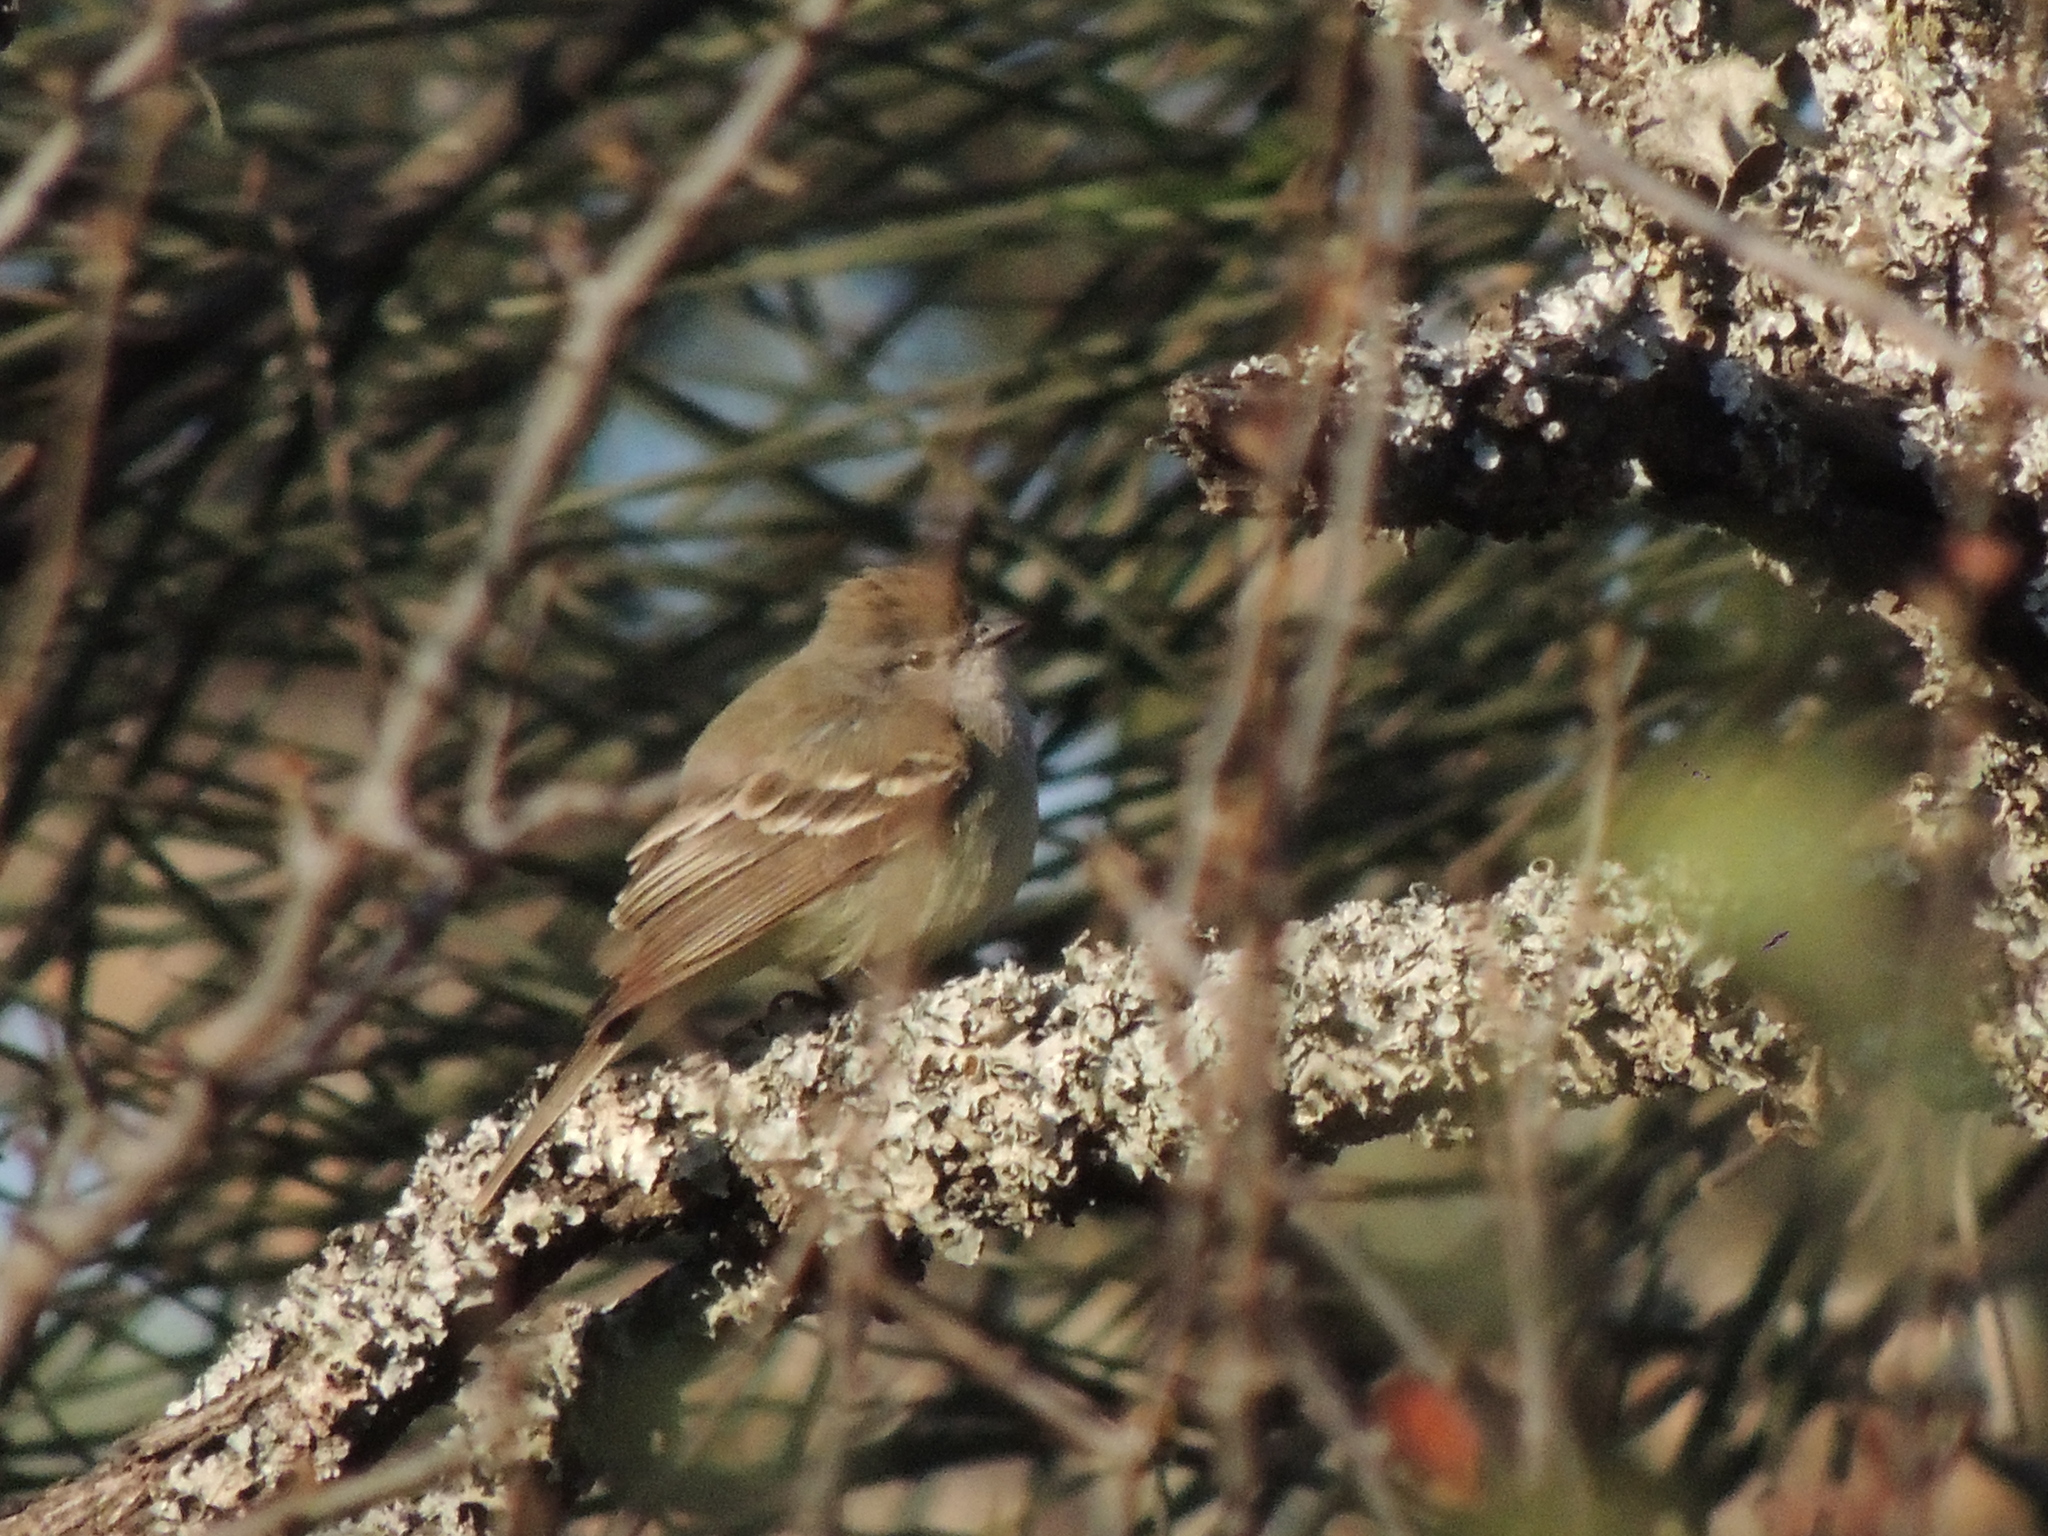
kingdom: Animalia
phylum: Chordata
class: Aves
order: Passeriformes
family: Tyrannidae
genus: Sublegatus
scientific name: Sublegatus modestus
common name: Southern scrub flycatcher
